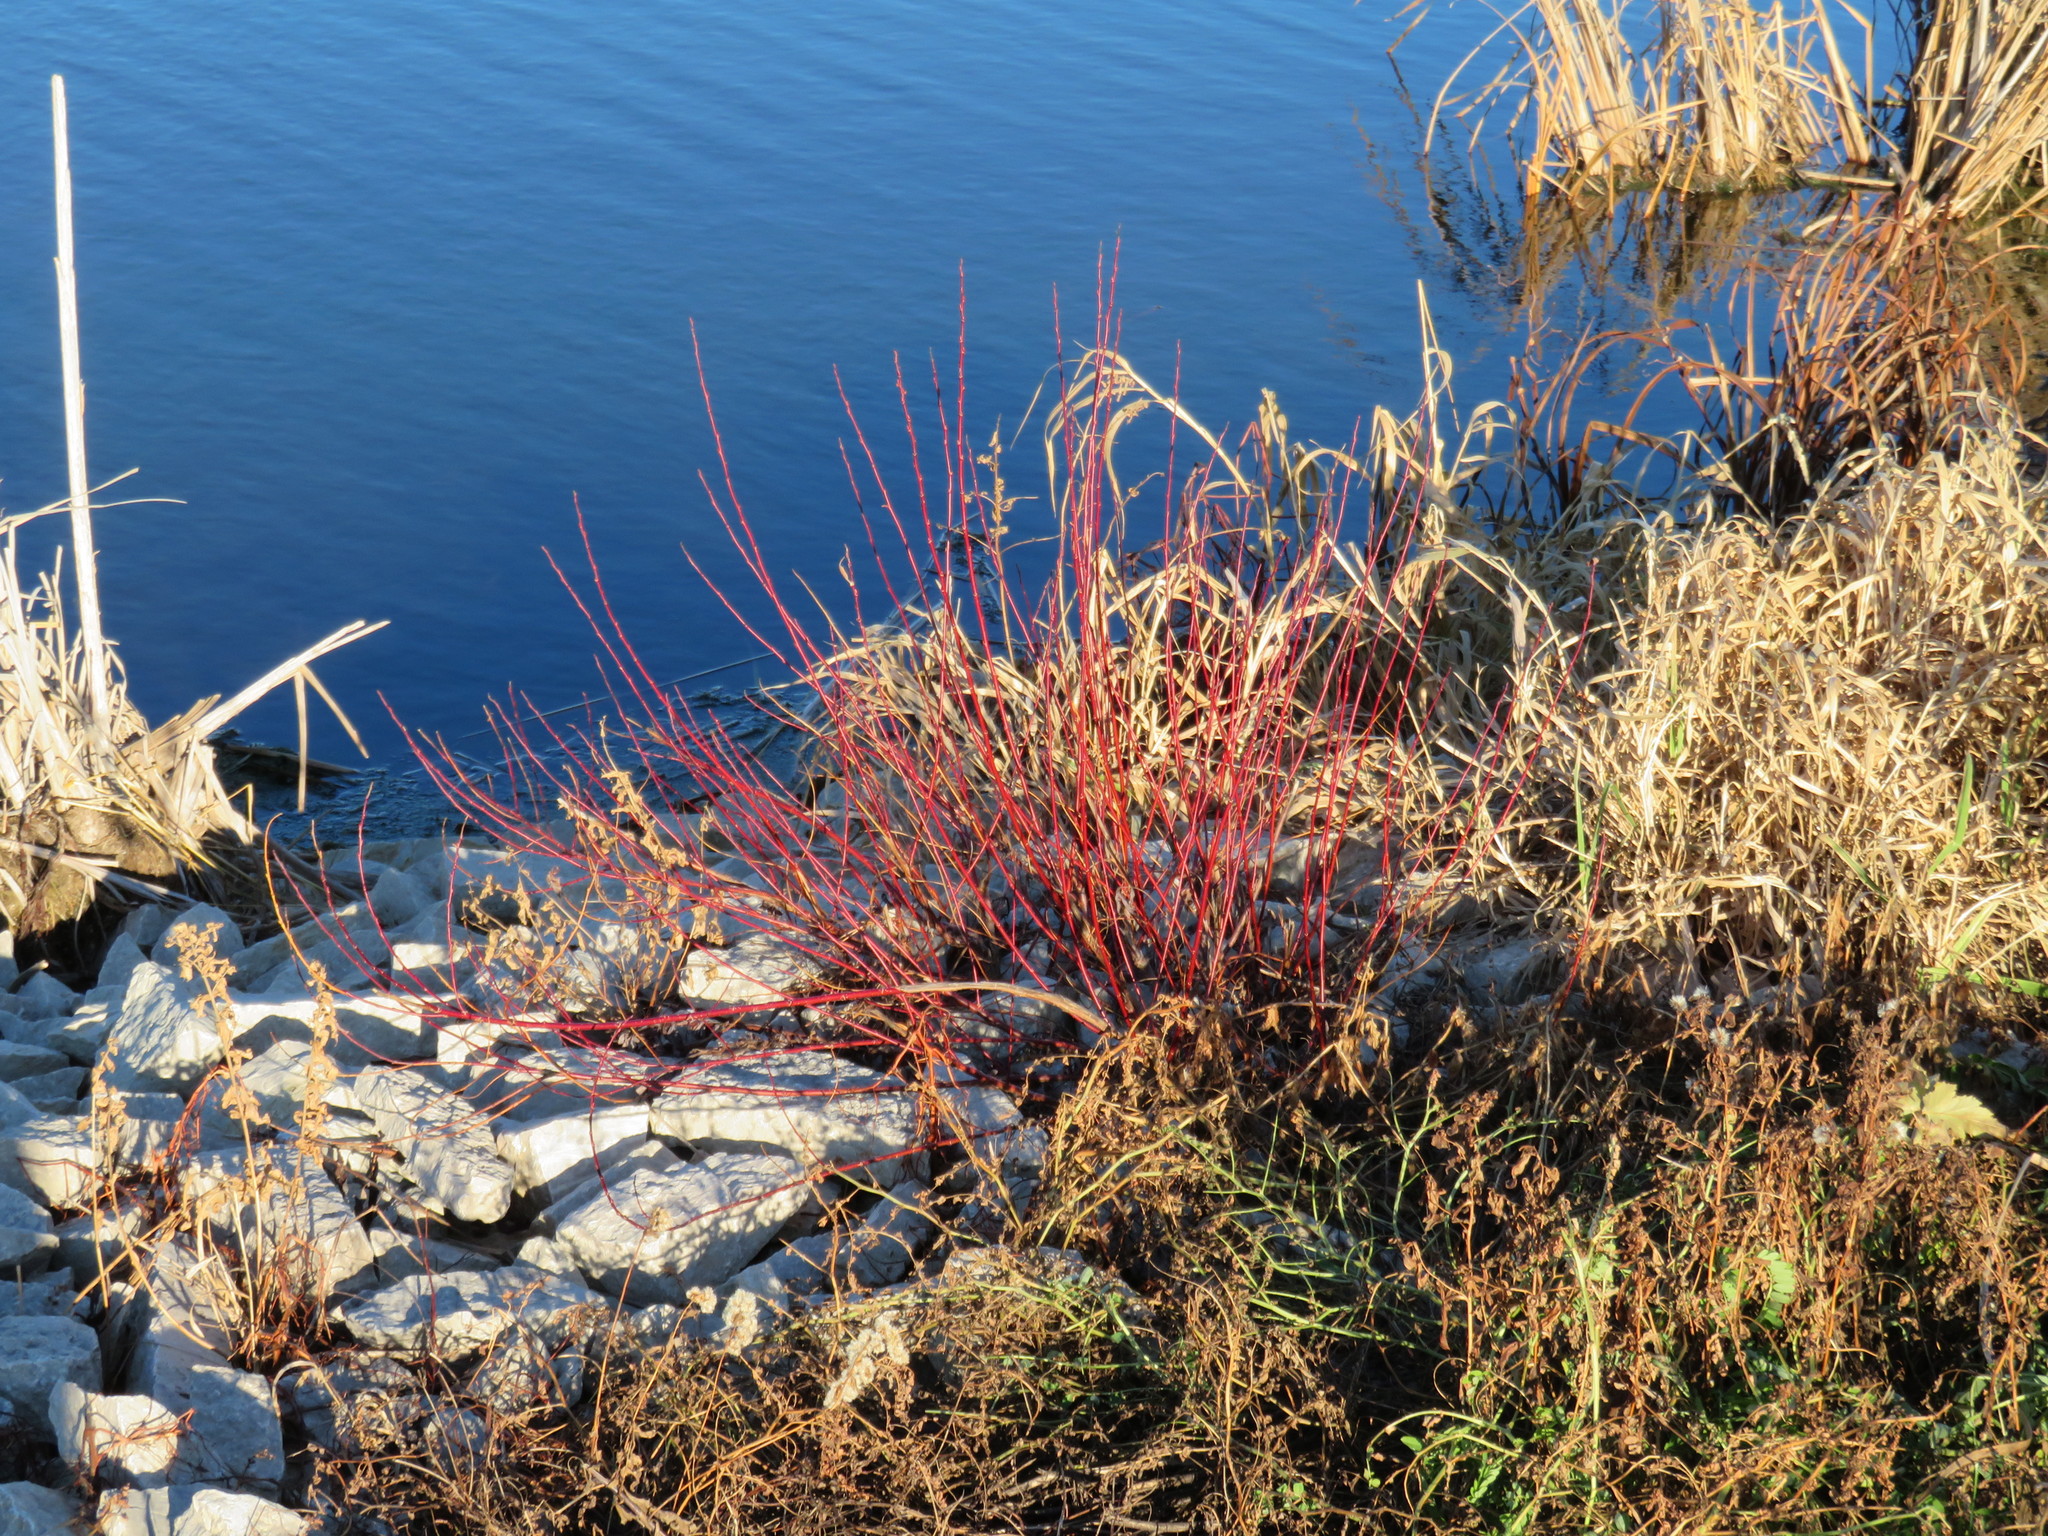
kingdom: Plantae
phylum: Tracheophyta
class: Magnoliopsida
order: Cornales
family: Cornaceae
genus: Cornus
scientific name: Cornus sericea
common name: Red-osier dogwood
